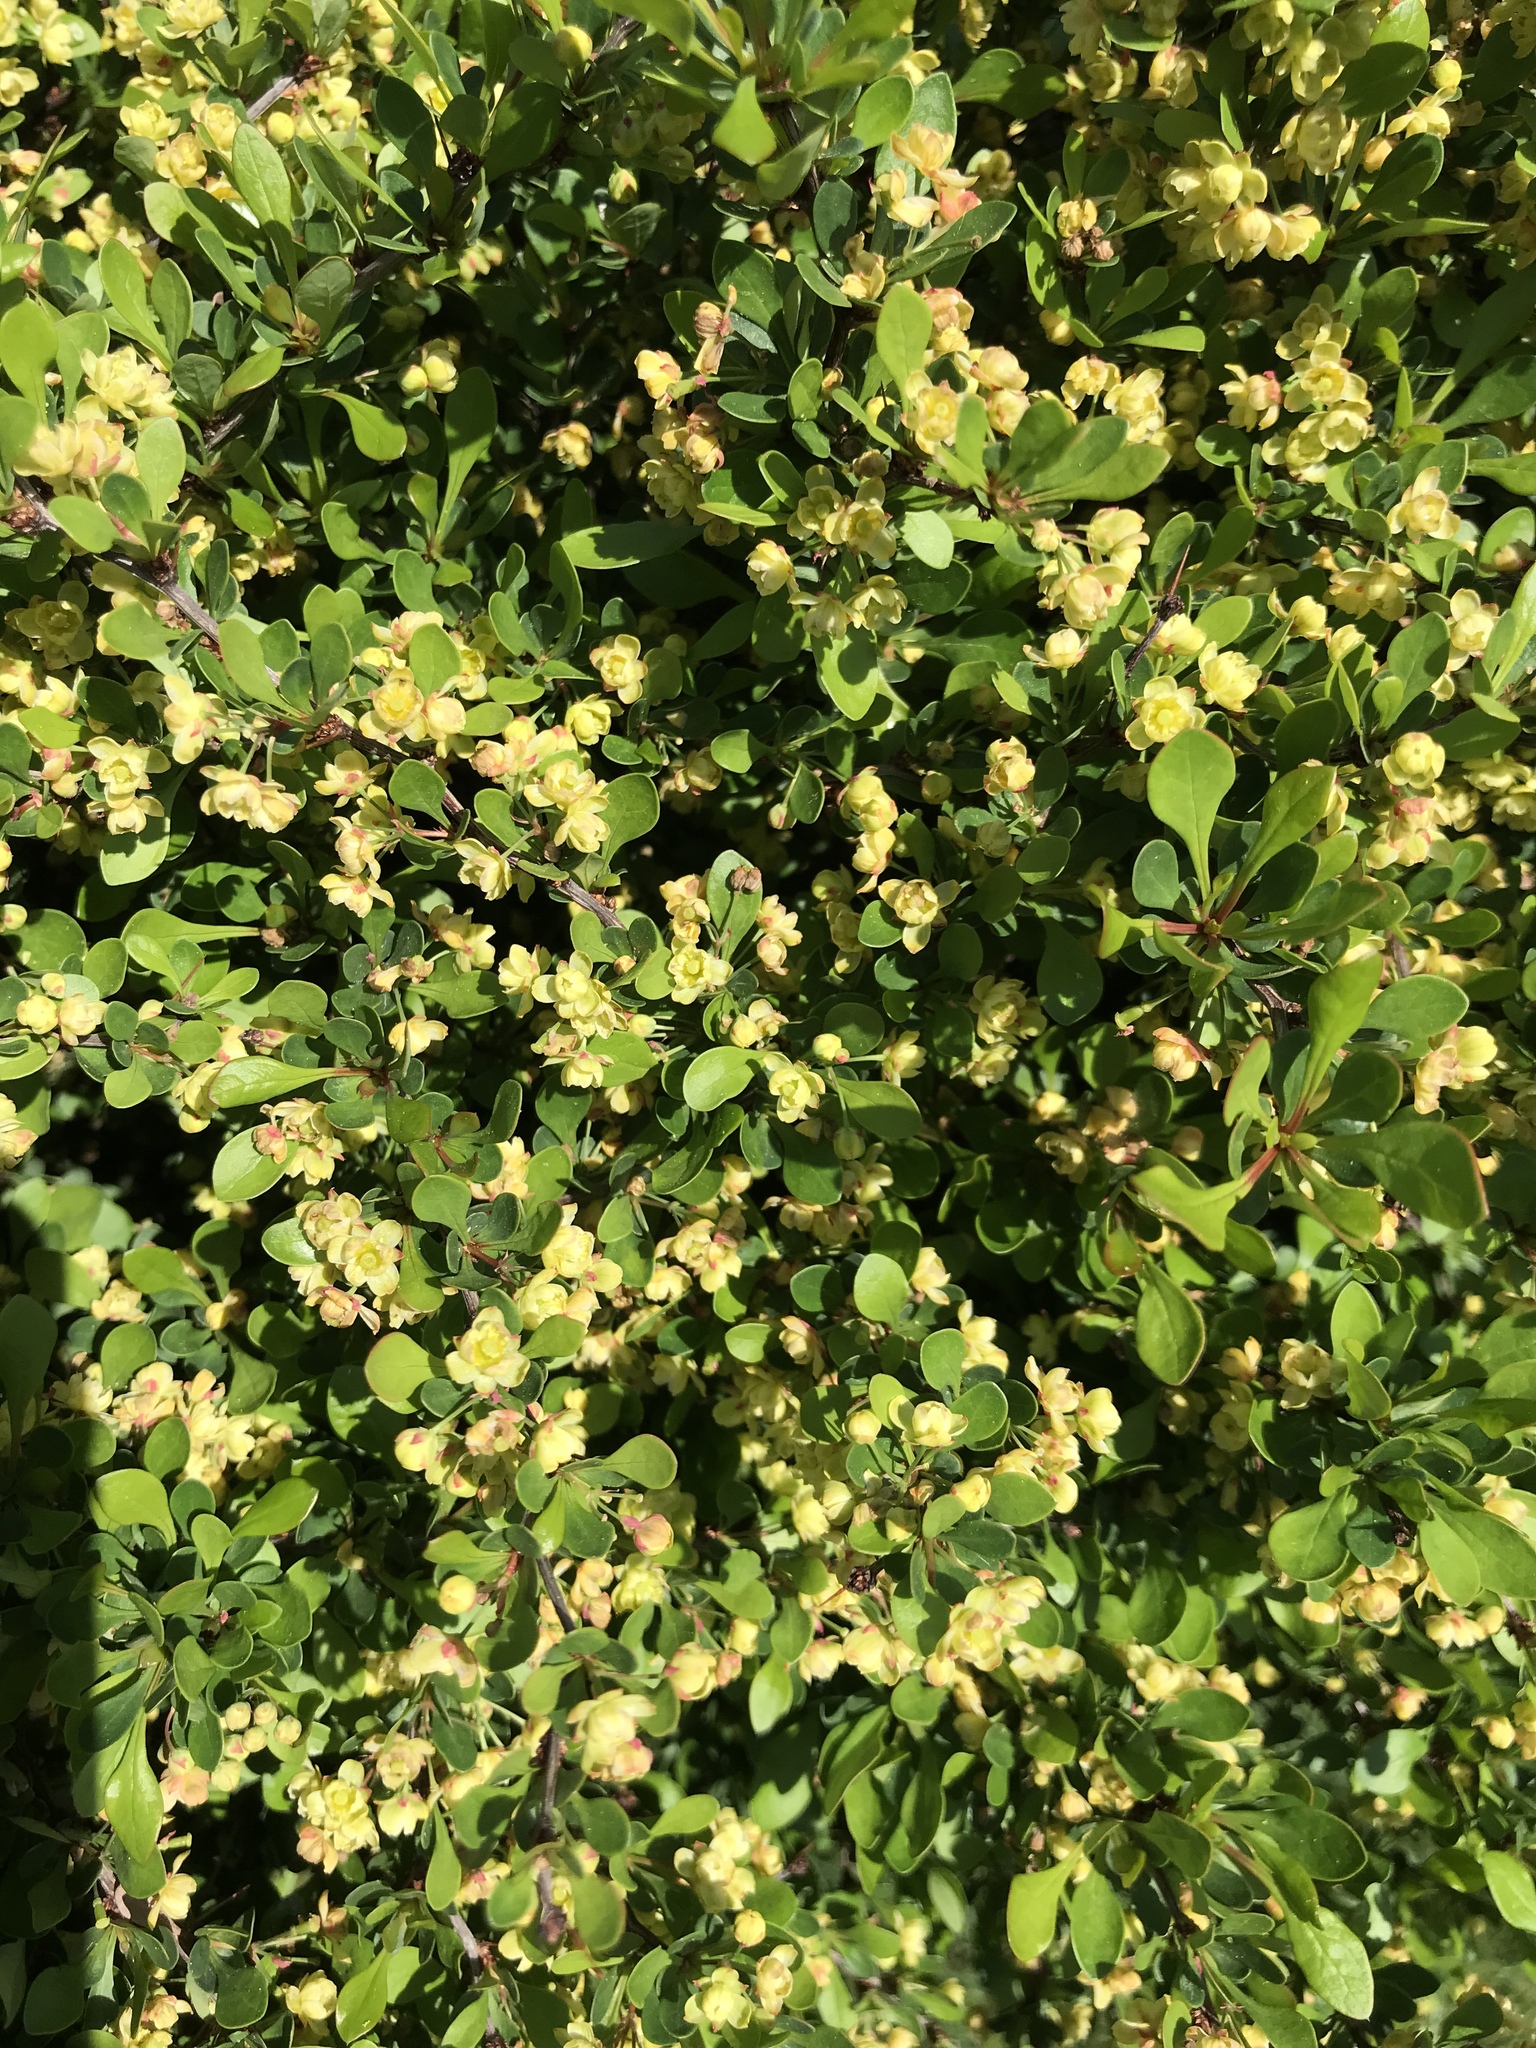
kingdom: Plantae
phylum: Tracheophyta
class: Magnoliopsida
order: Ranunculales
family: Berberidaceae
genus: Berberis
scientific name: Berberis thunbergii
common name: Japanese barberry
